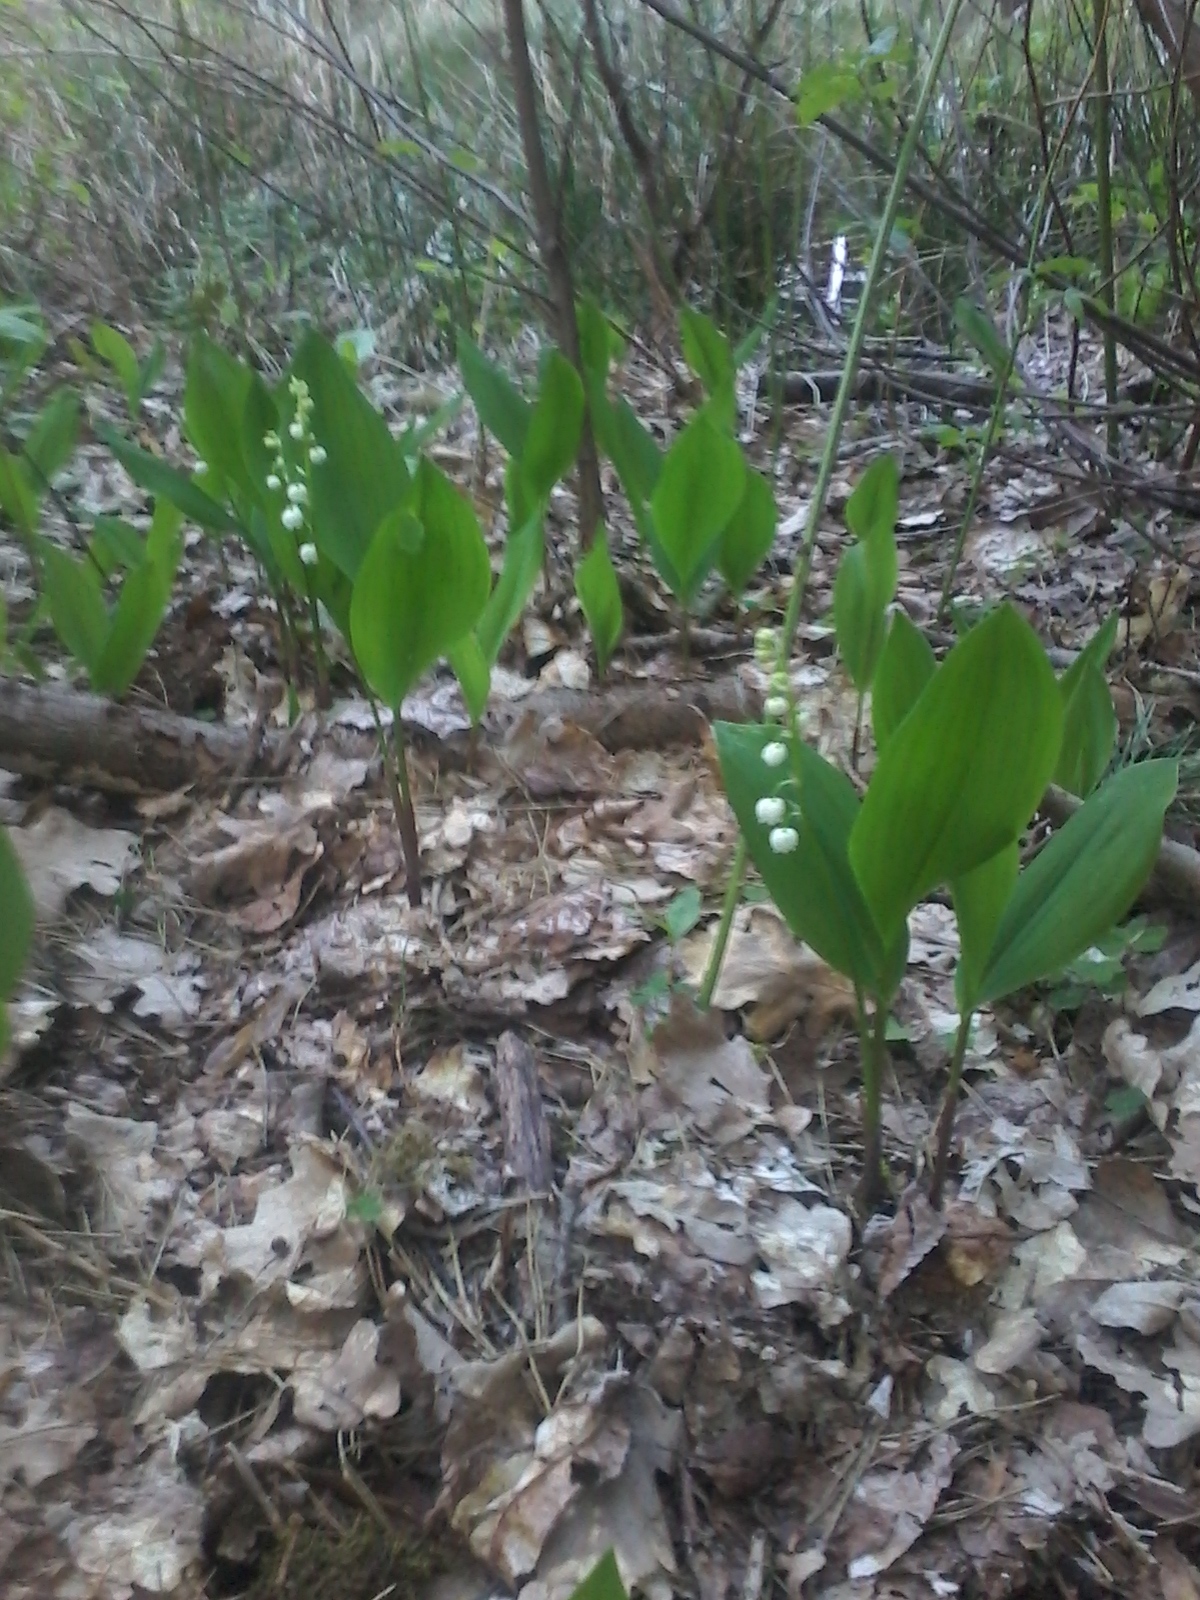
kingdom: Plantae
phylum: Tracheophyta
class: Liliopsida
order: Asparagales
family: Asparagaceae
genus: Convallaria
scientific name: Convallaria majalis
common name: Lily-of-the-valley
